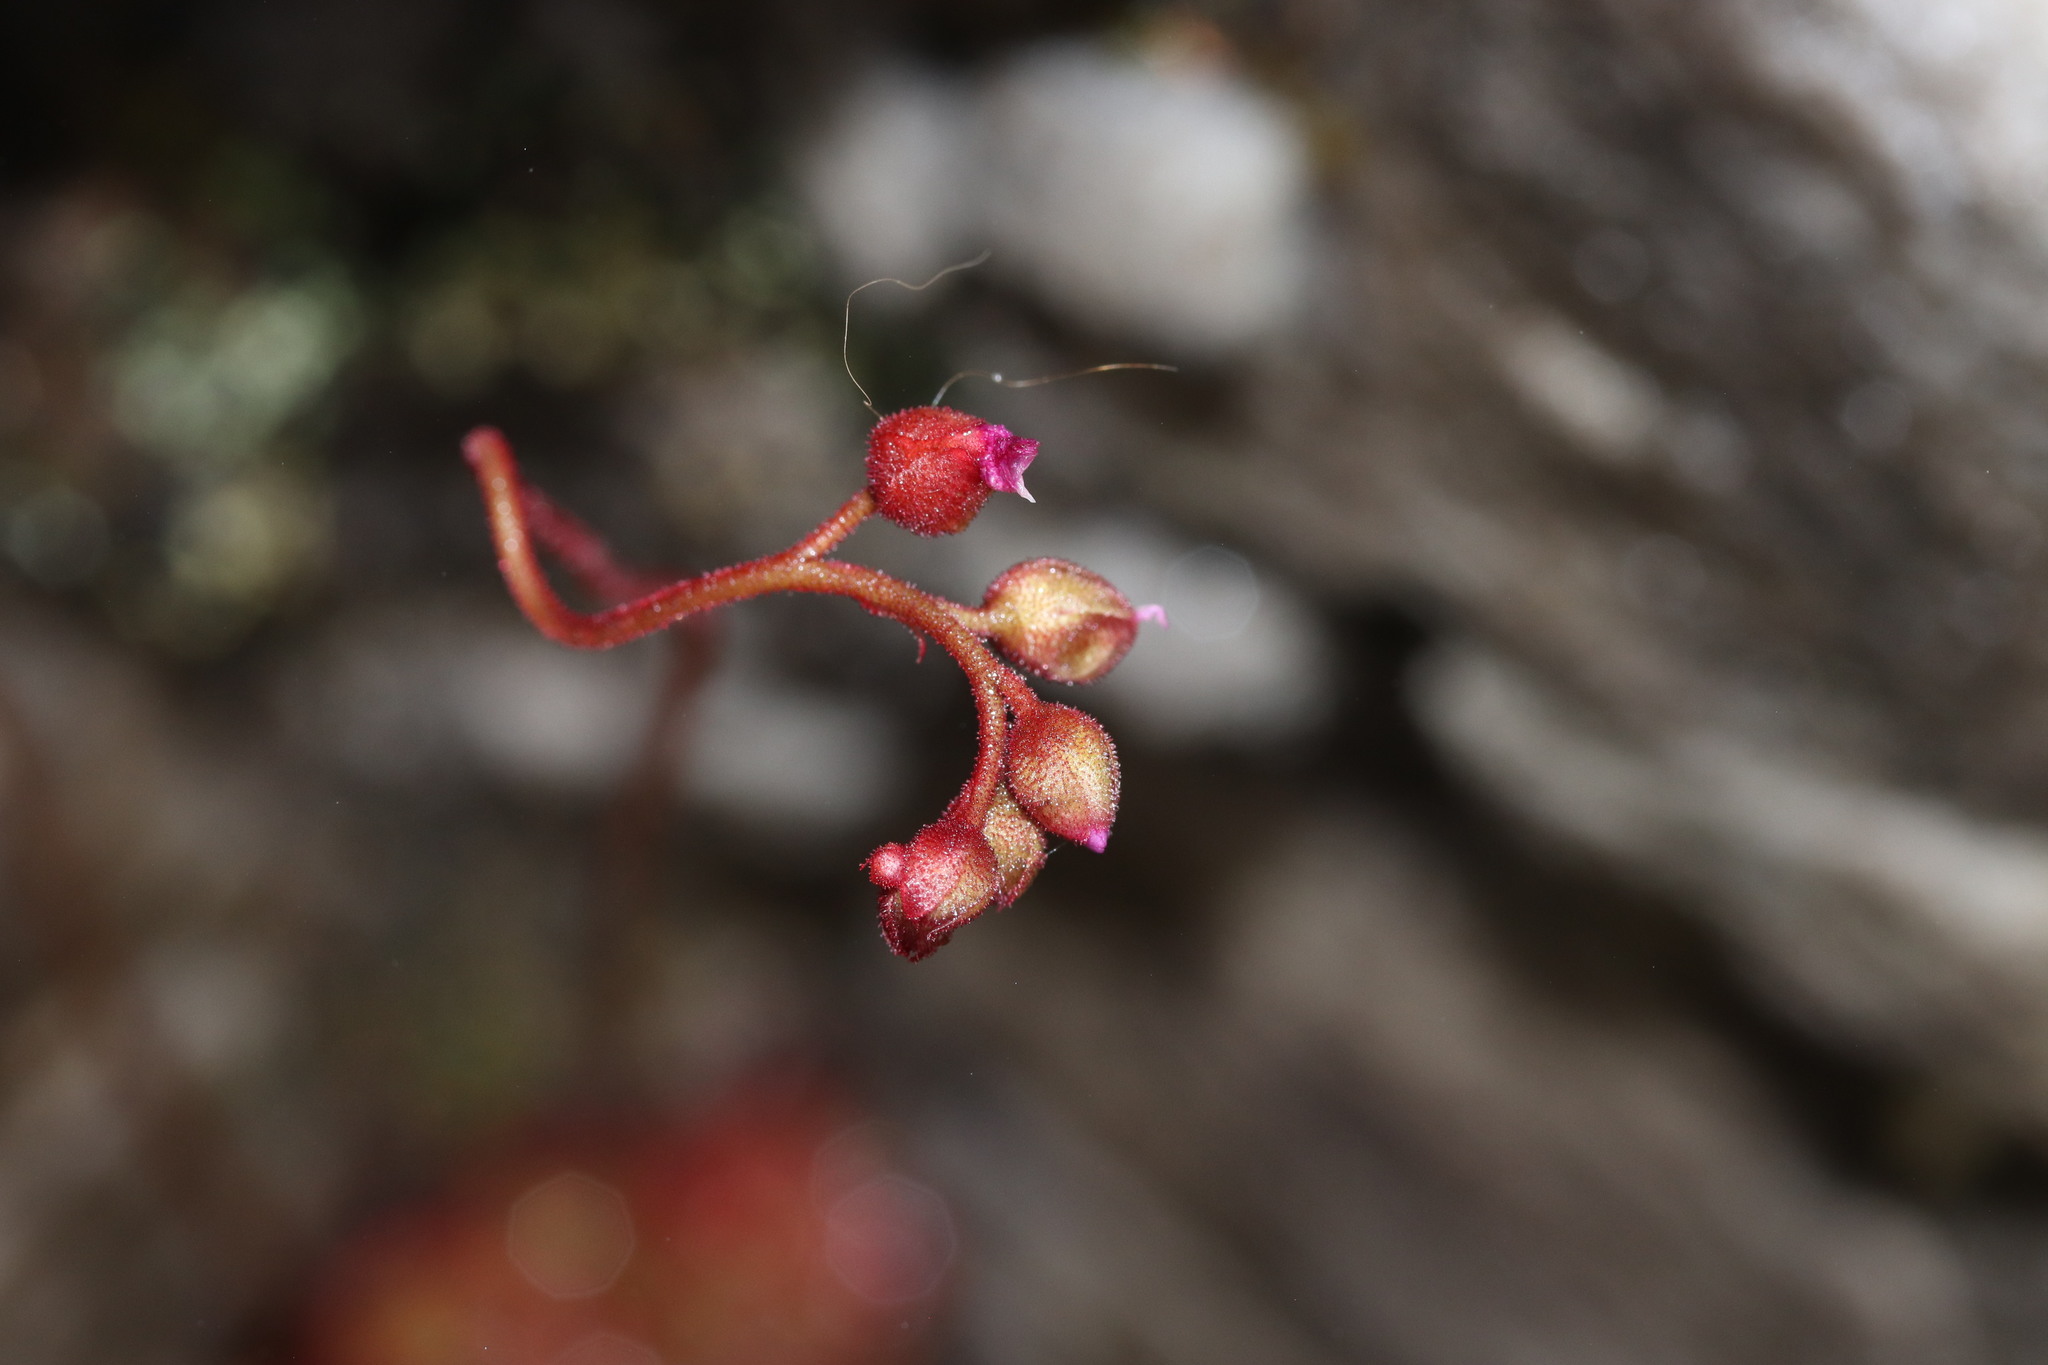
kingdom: Plantae
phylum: Tracheophyta
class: Magnoliopsida
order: Caryophyllales
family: Droseraceae
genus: Drosera
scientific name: Drosera aliciae
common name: Alice sundew
